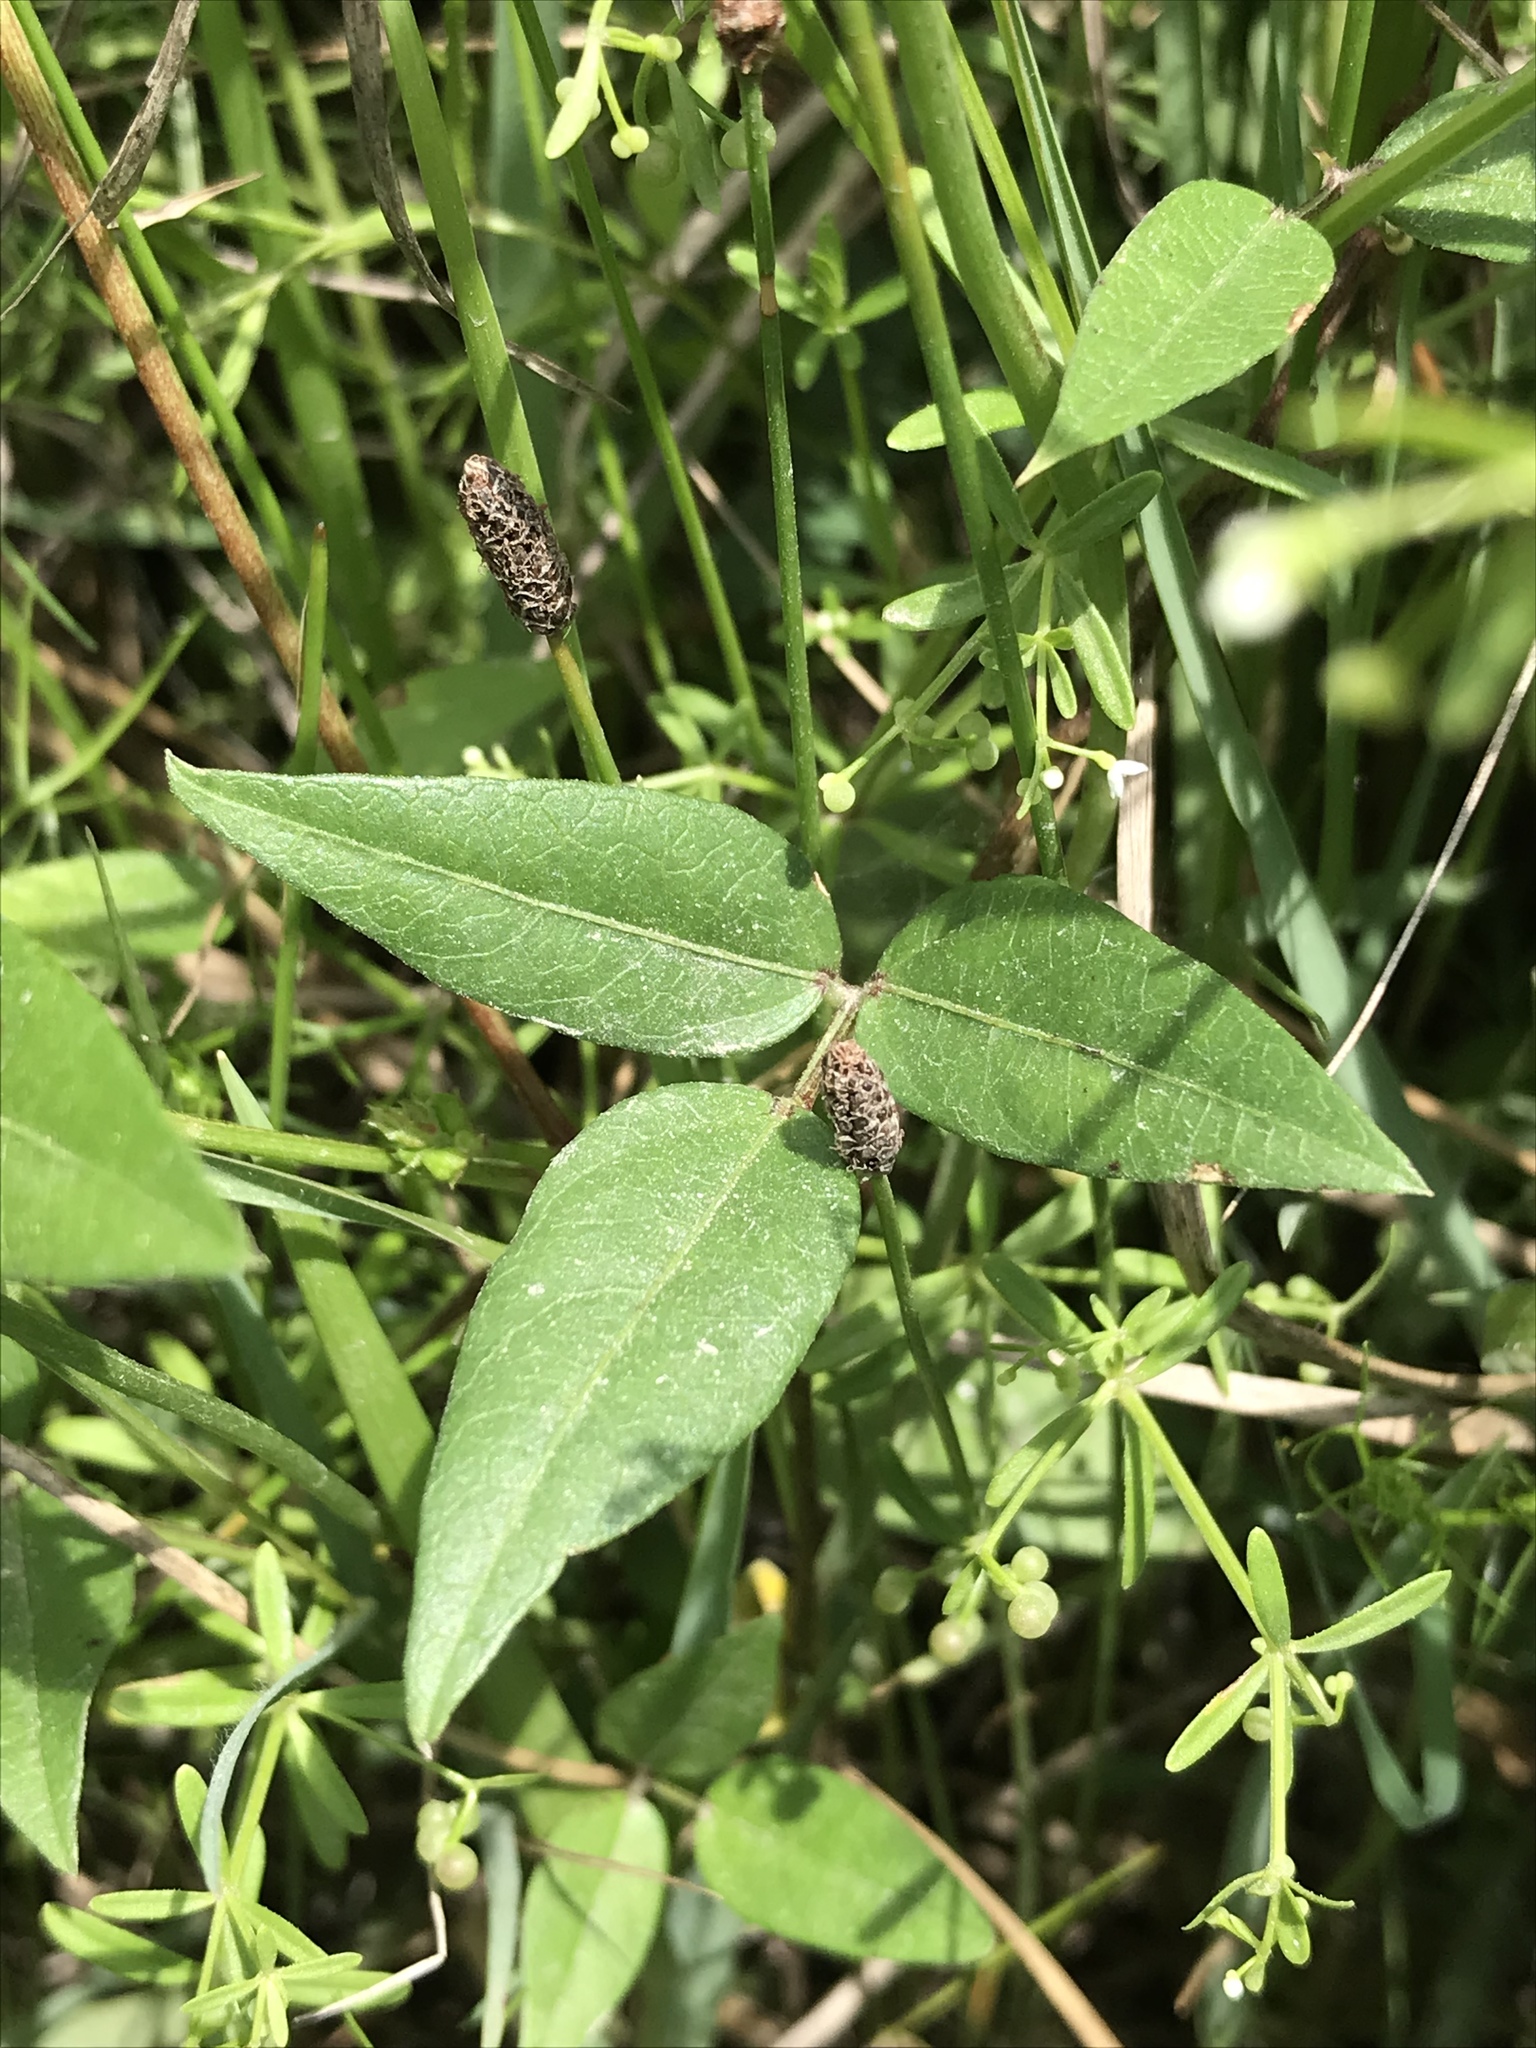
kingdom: Plantae
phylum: Tracheophyta
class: Magnoliopsida
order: Fabales
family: Fabaceae
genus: Vigna
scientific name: Vigna luteola
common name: Hairypod cowpea
